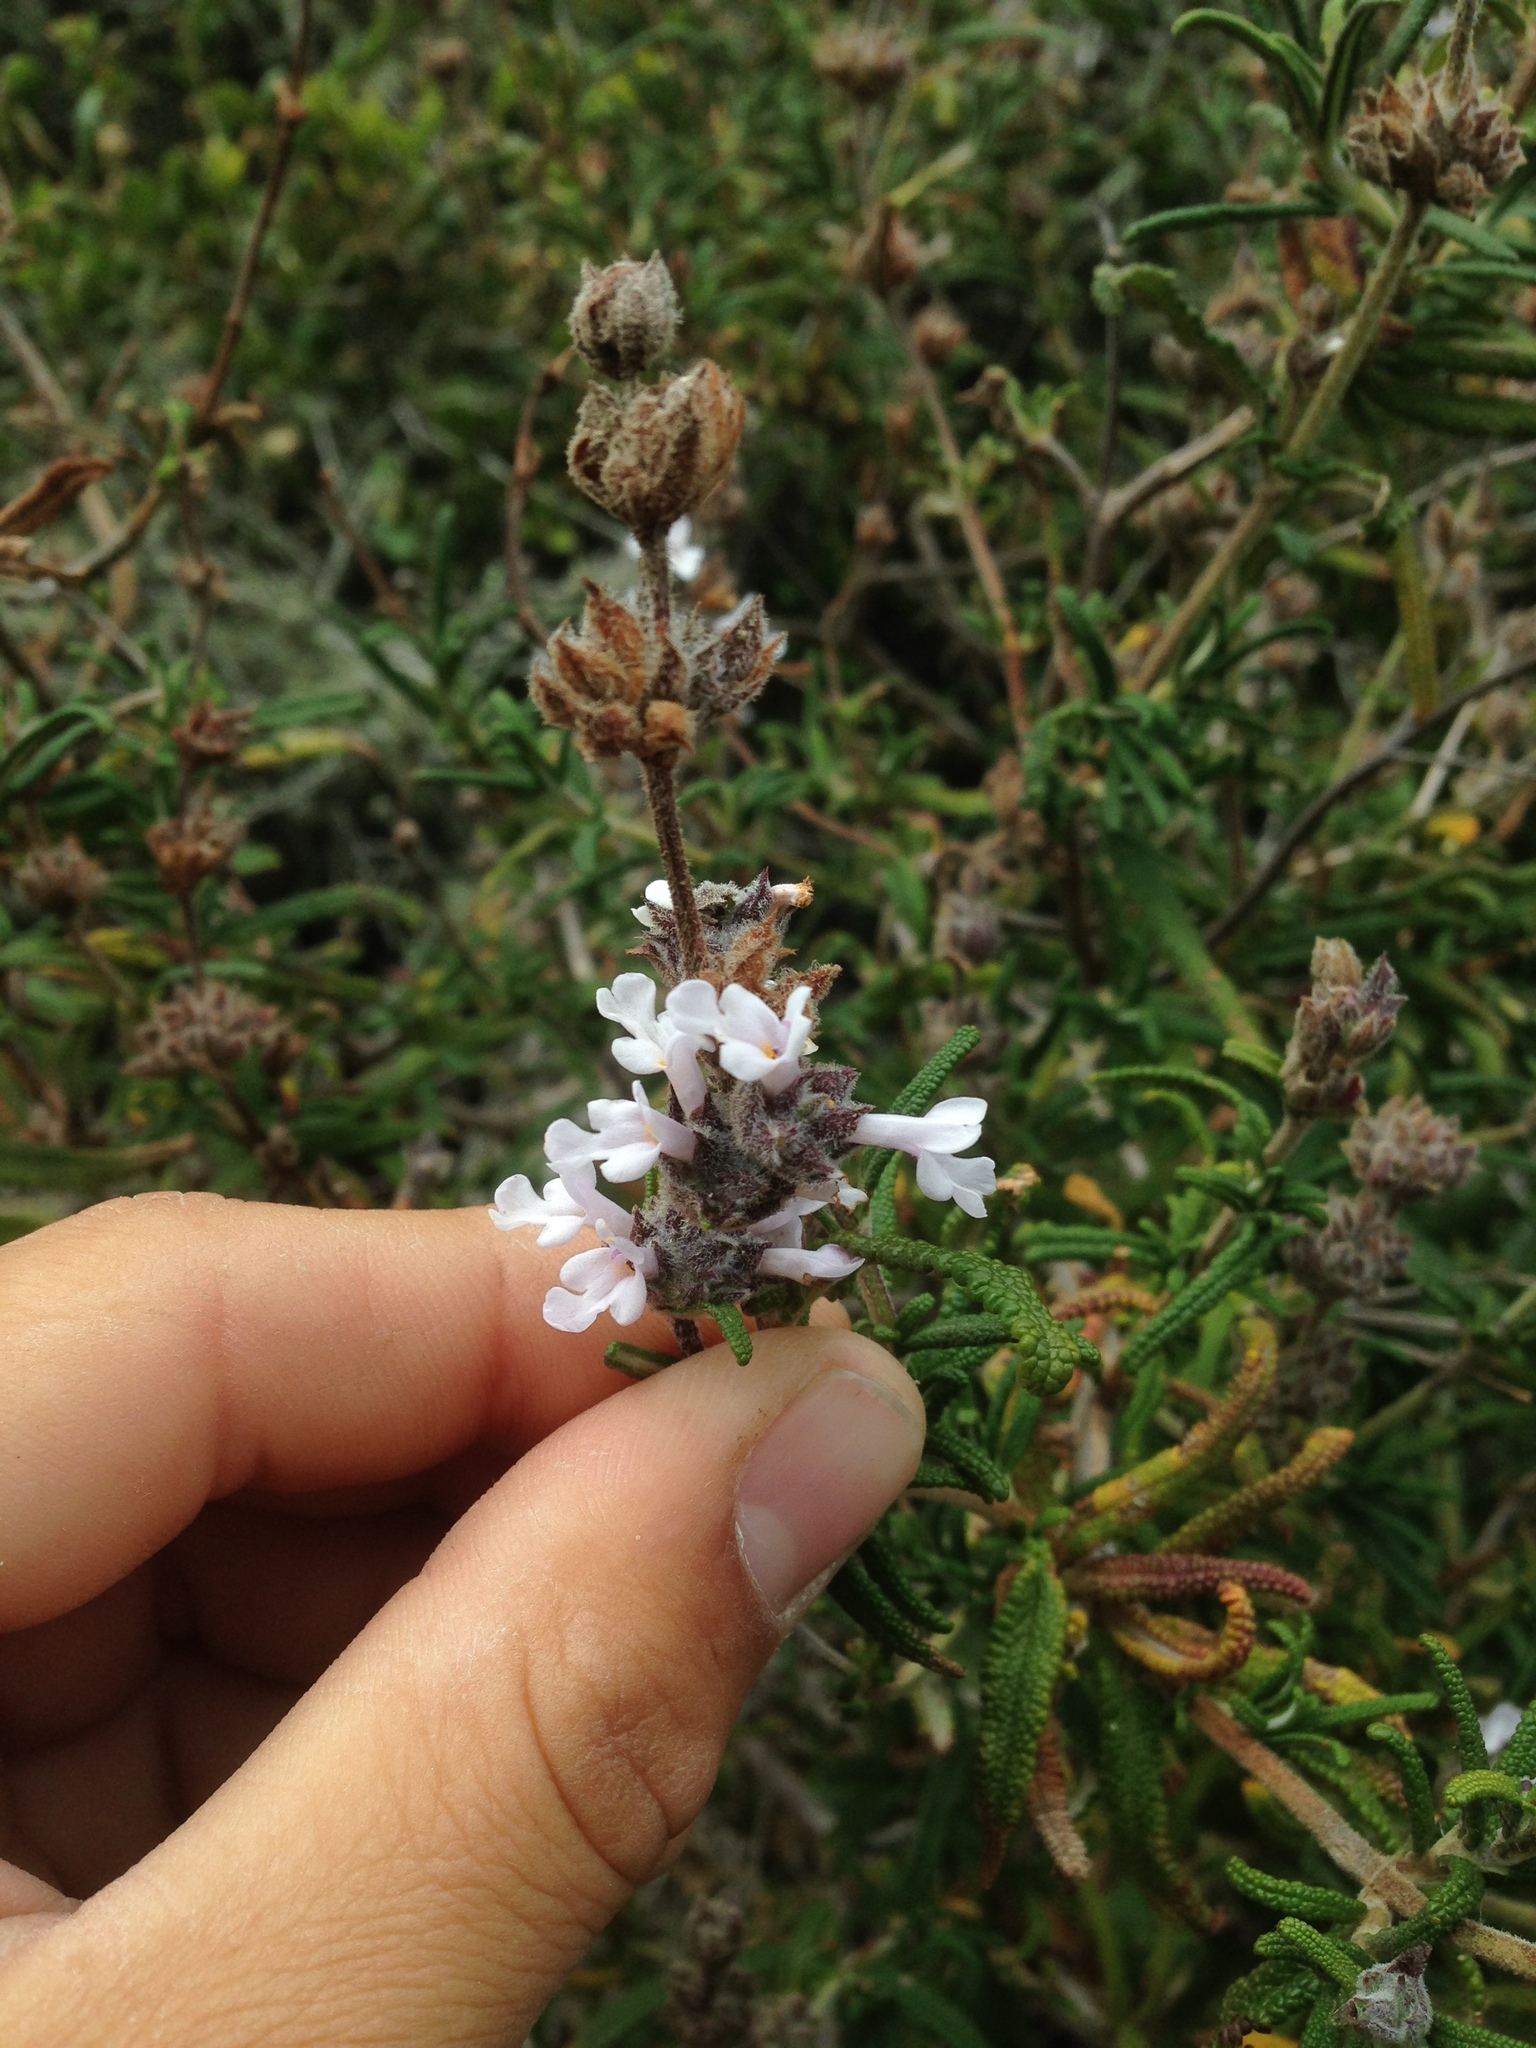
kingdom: Plantae
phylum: Tracheophyta
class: Magnoliopsida
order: Lamiales
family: Lamiaceae
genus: Salvia
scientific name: Salvia brandegeei
